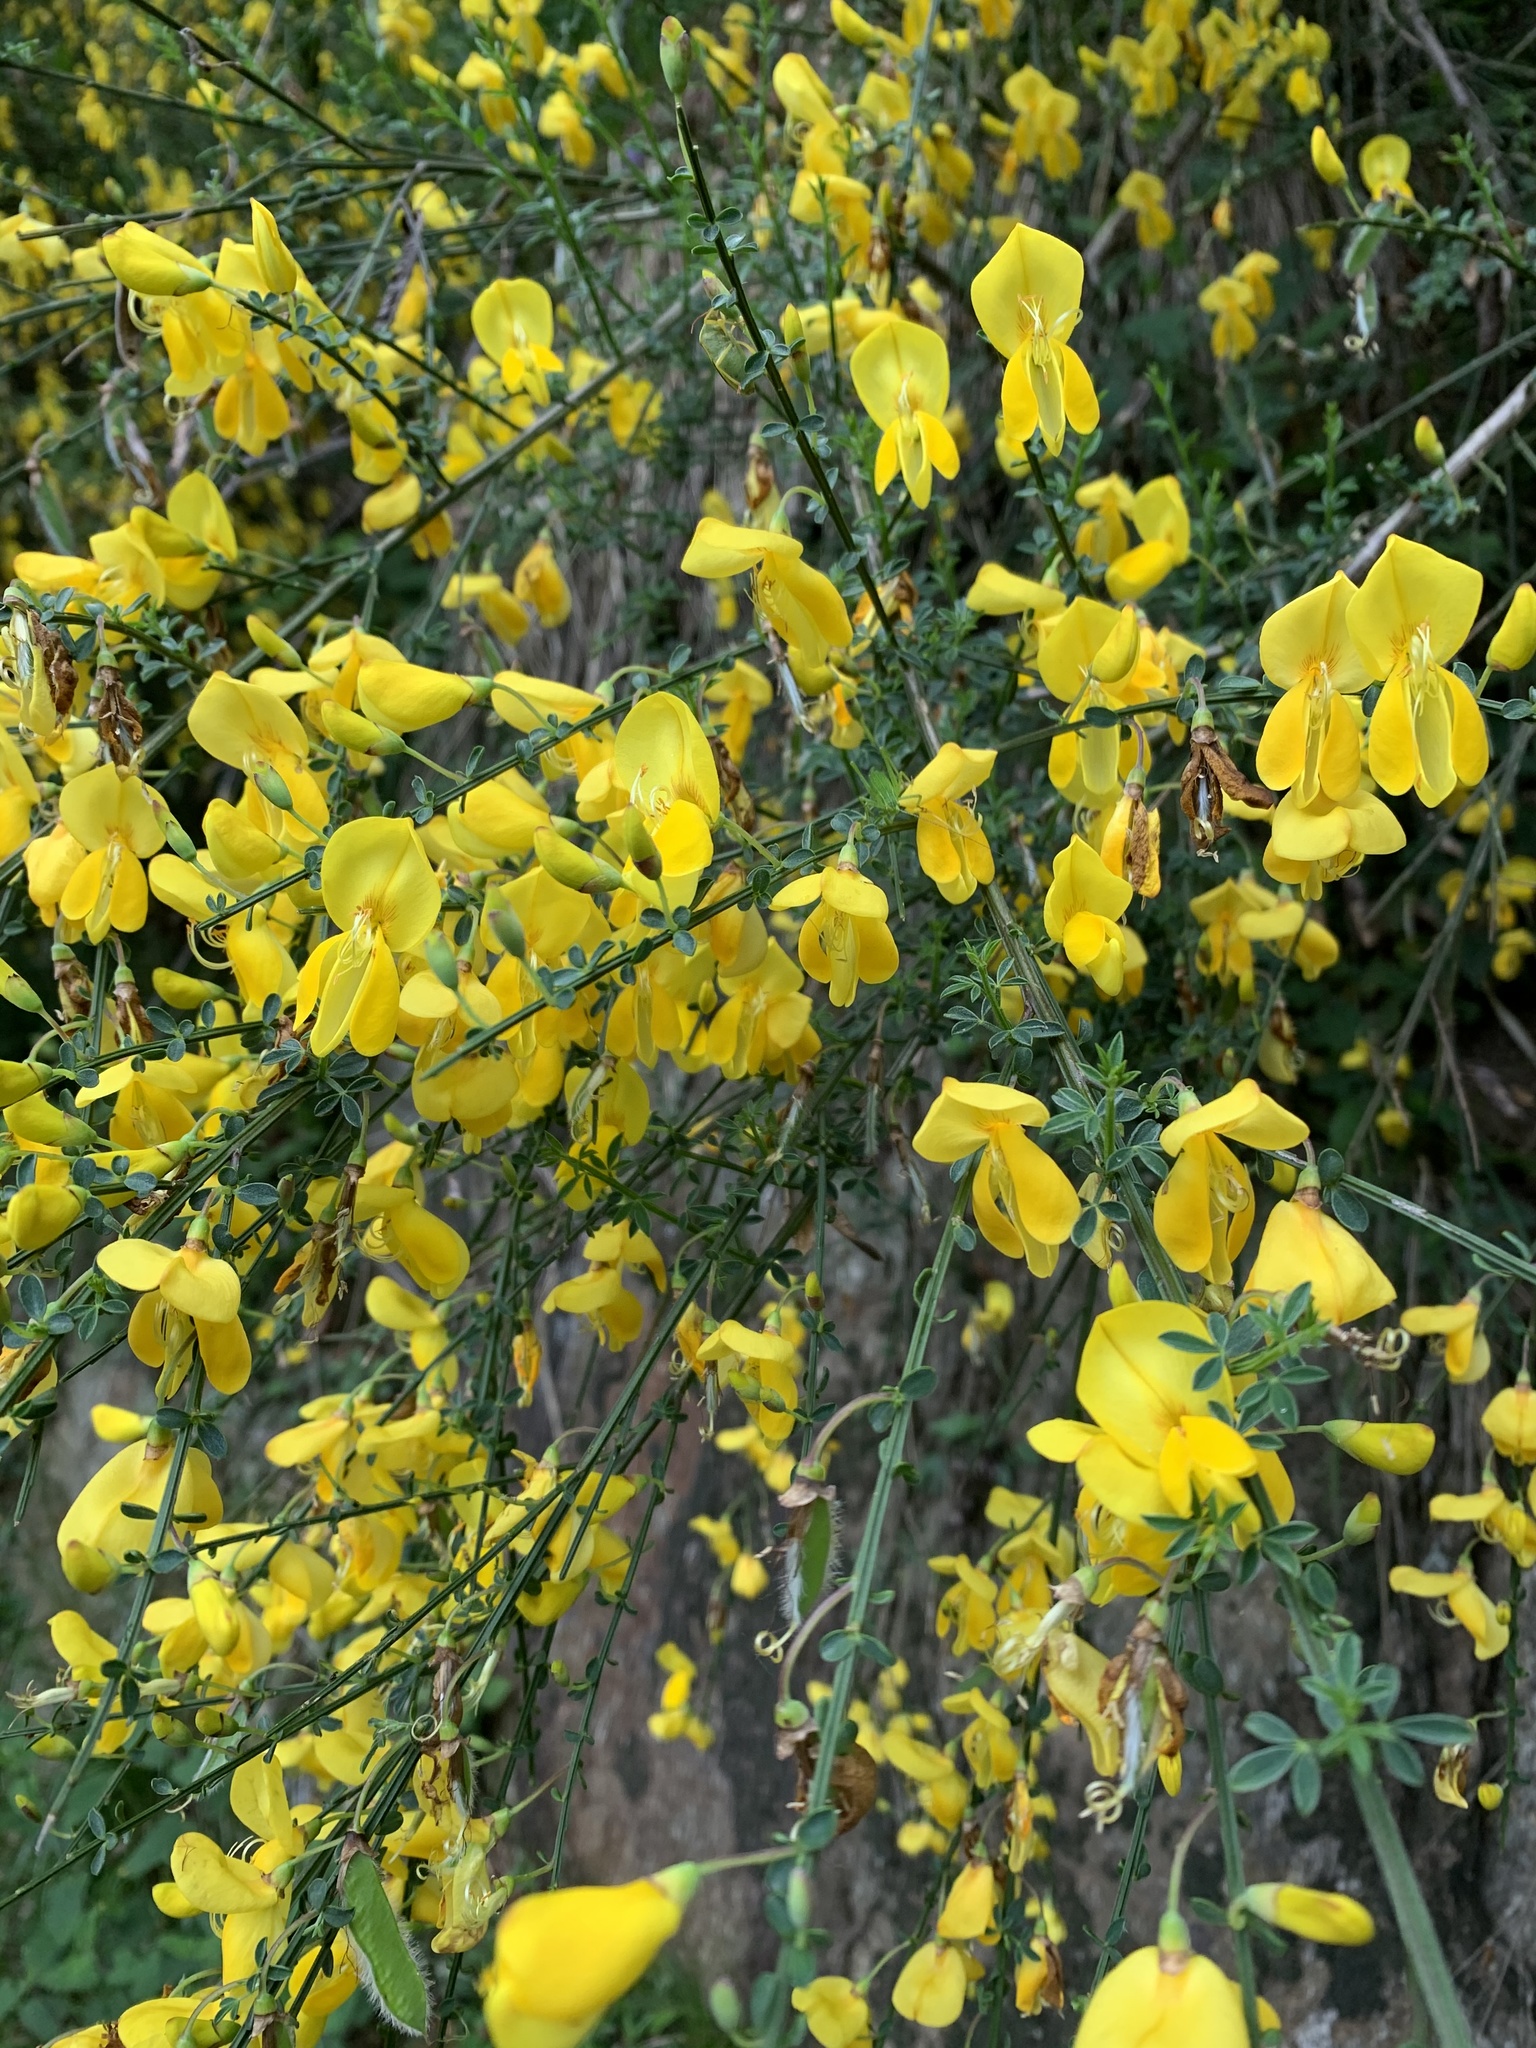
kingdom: Plantae
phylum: Tracheophyta
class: Magnoliopsida
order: Fabales
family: Fabaceae
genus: Cytisus
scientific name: Cytisus scoparius
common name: Scotch broom
